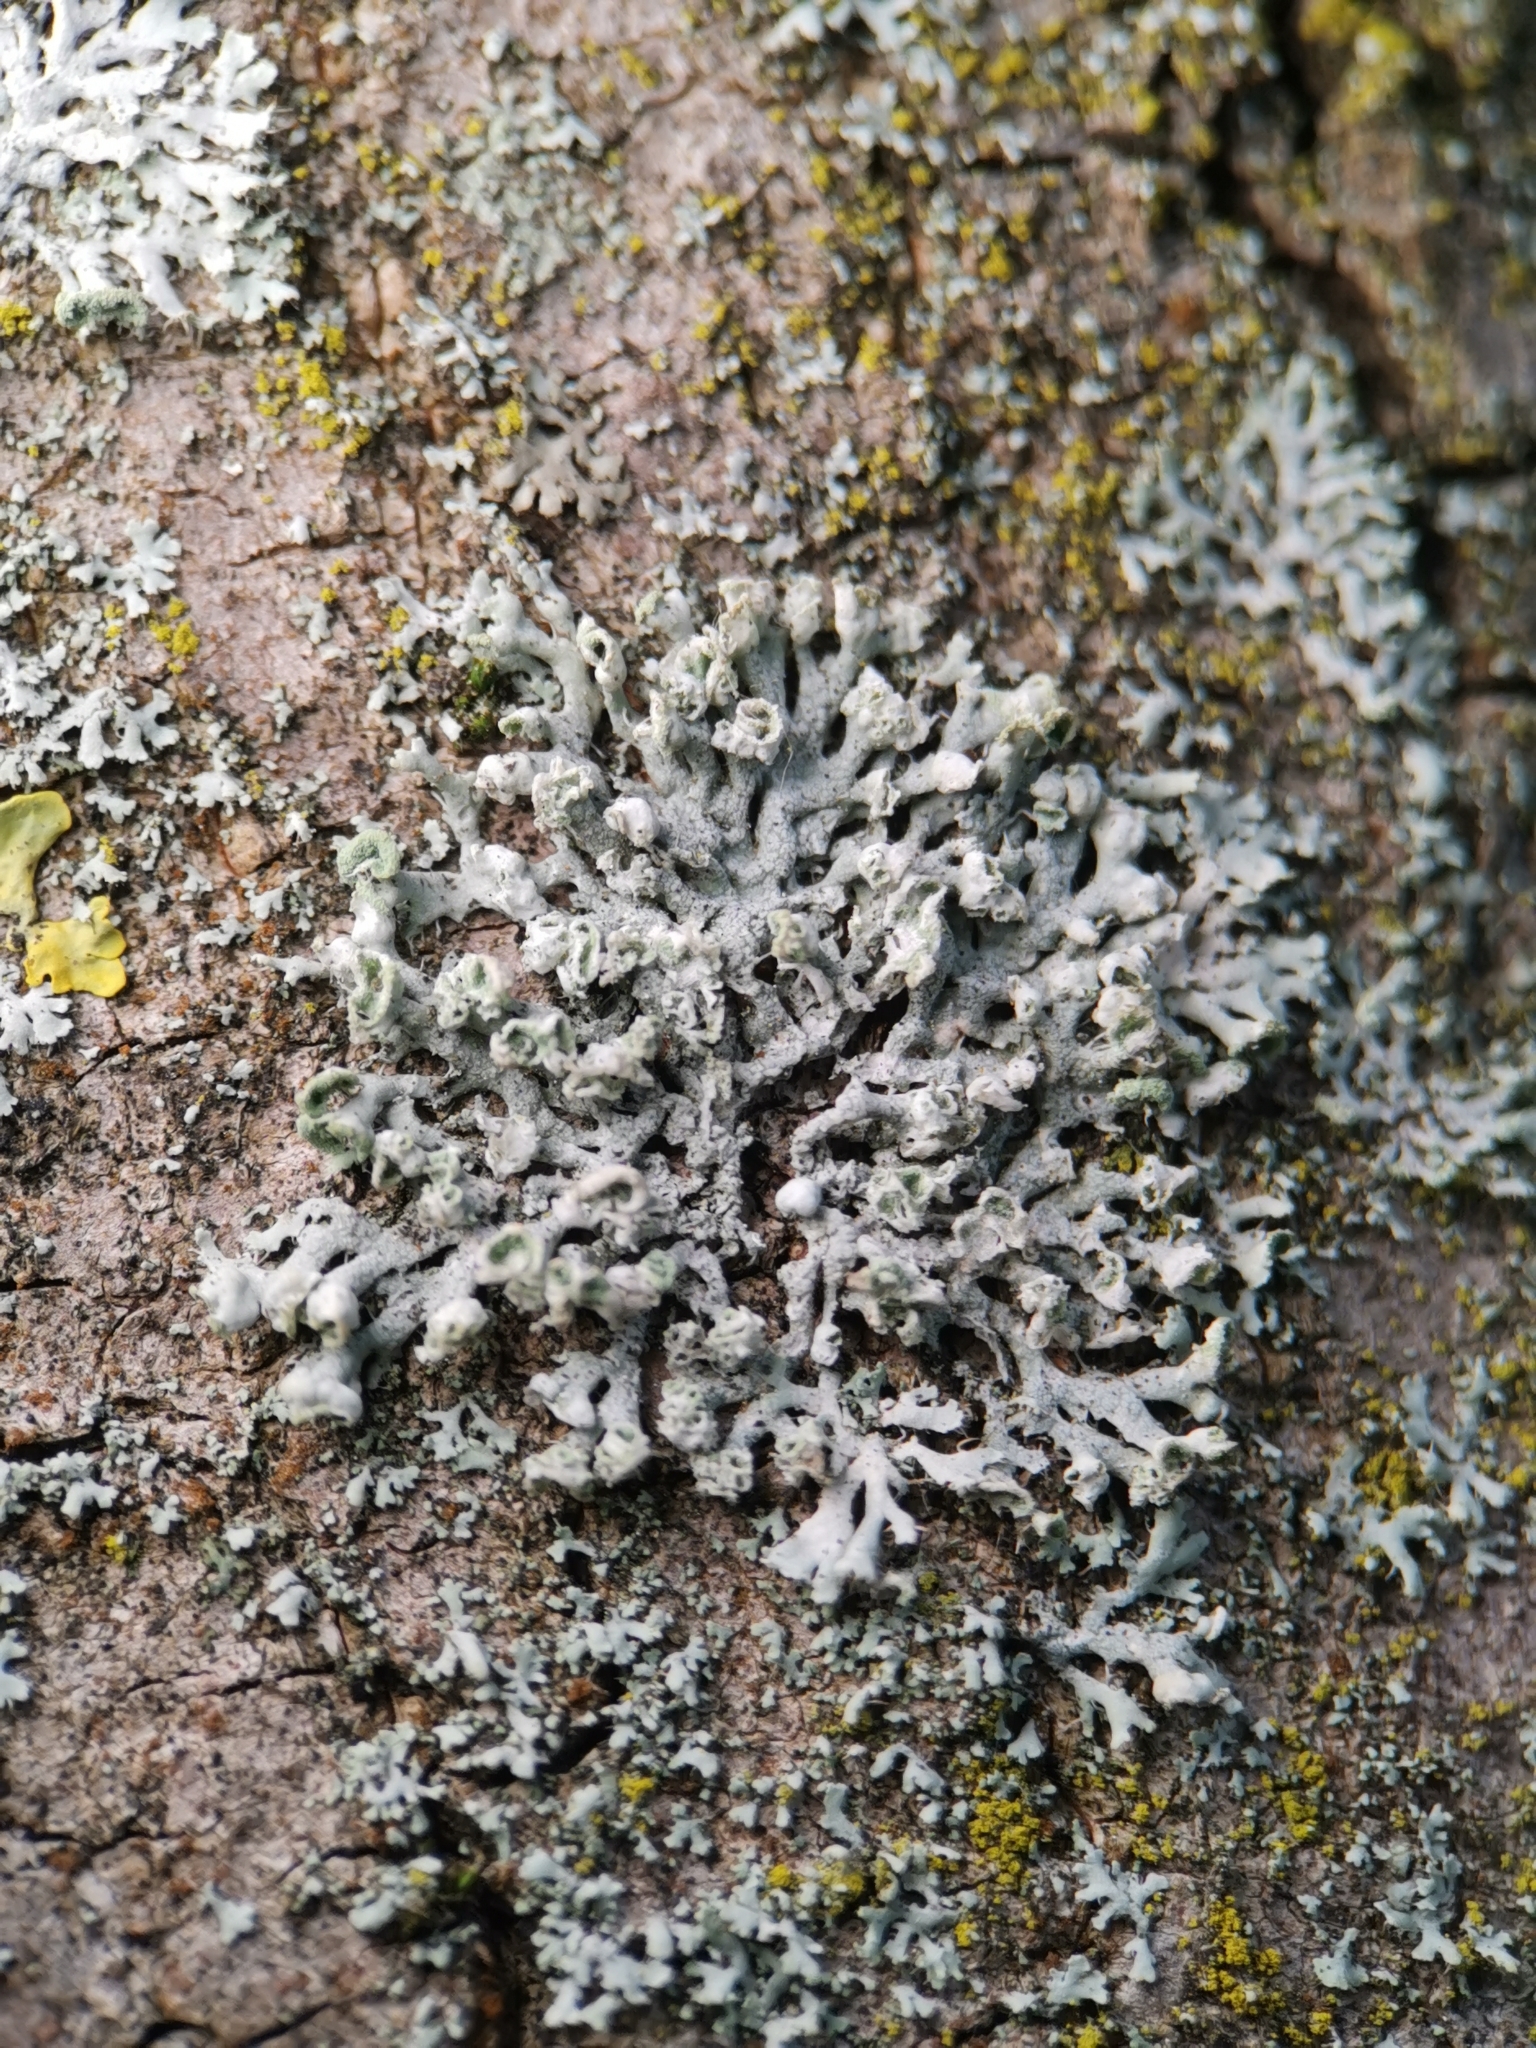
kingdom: Fungi
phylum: Ascomycota
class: Lecanoromycetes
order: Caliciales
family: Physciaceae
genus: Physcia
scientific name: Physcia tenella
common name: Fringed rosette lichen
